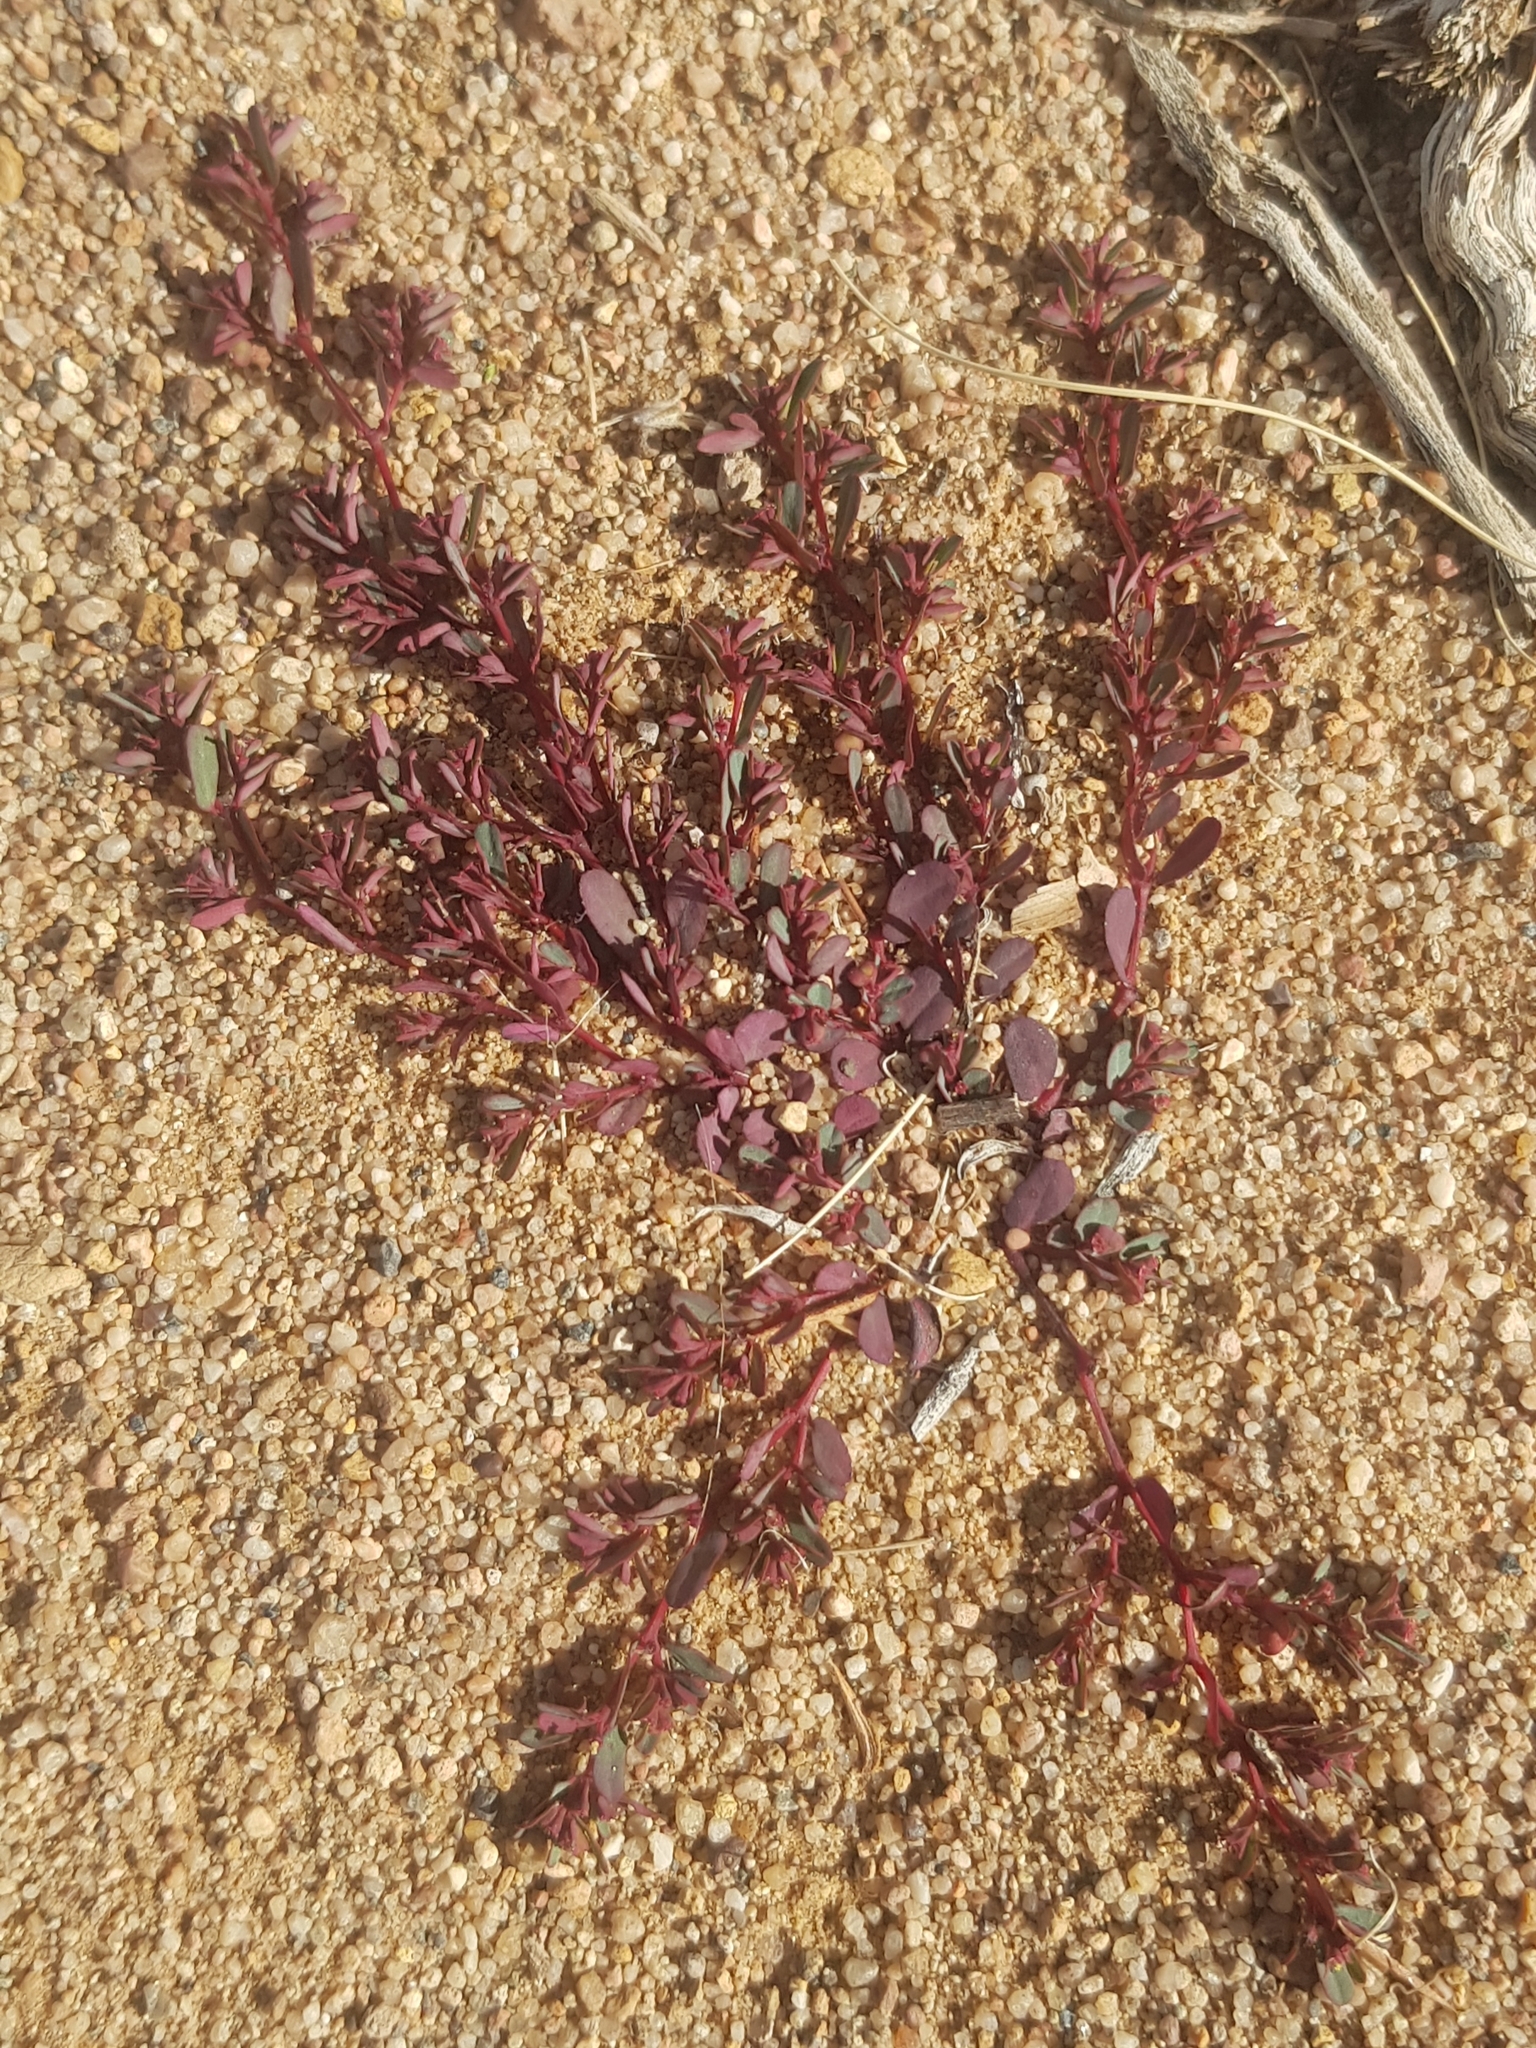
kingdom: Plantae
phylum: Tracheophyta
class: Magnoliopsida
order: Malpighiales
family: Euphorbiaceae
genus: Euphorbia
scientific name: Euphorbia humifusa
